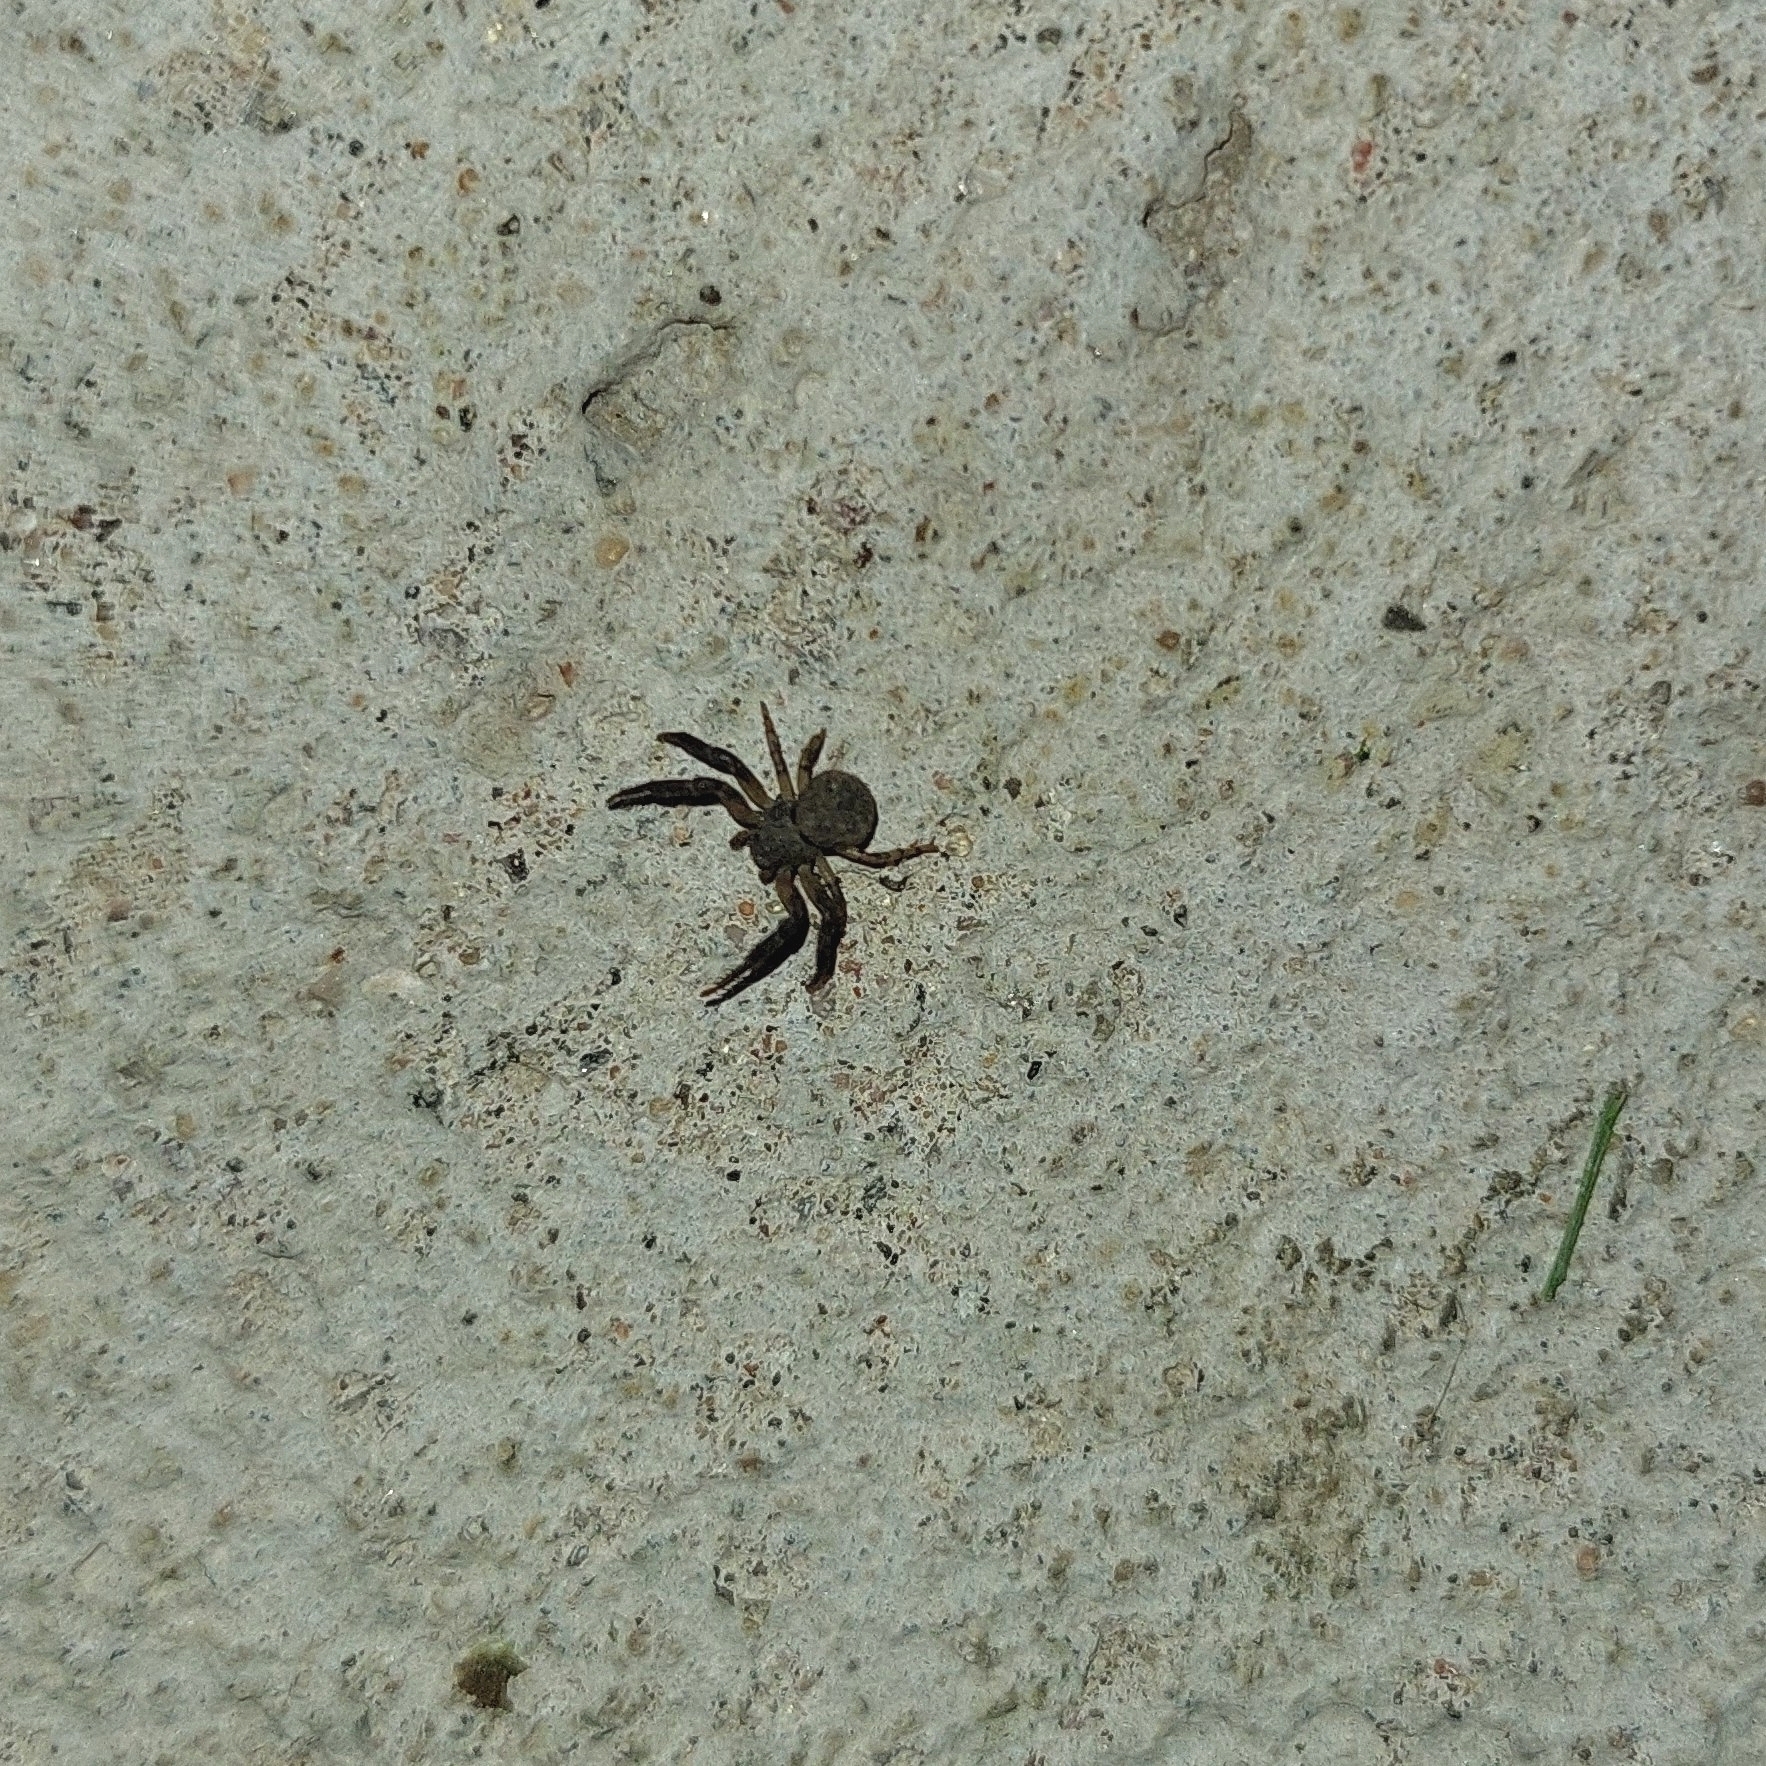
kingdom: Animalia
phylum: Arthropoda
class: Arachnida
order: Araneae
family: Thomisidae
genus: Misumenoides
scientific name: Misumenoides athleticus
